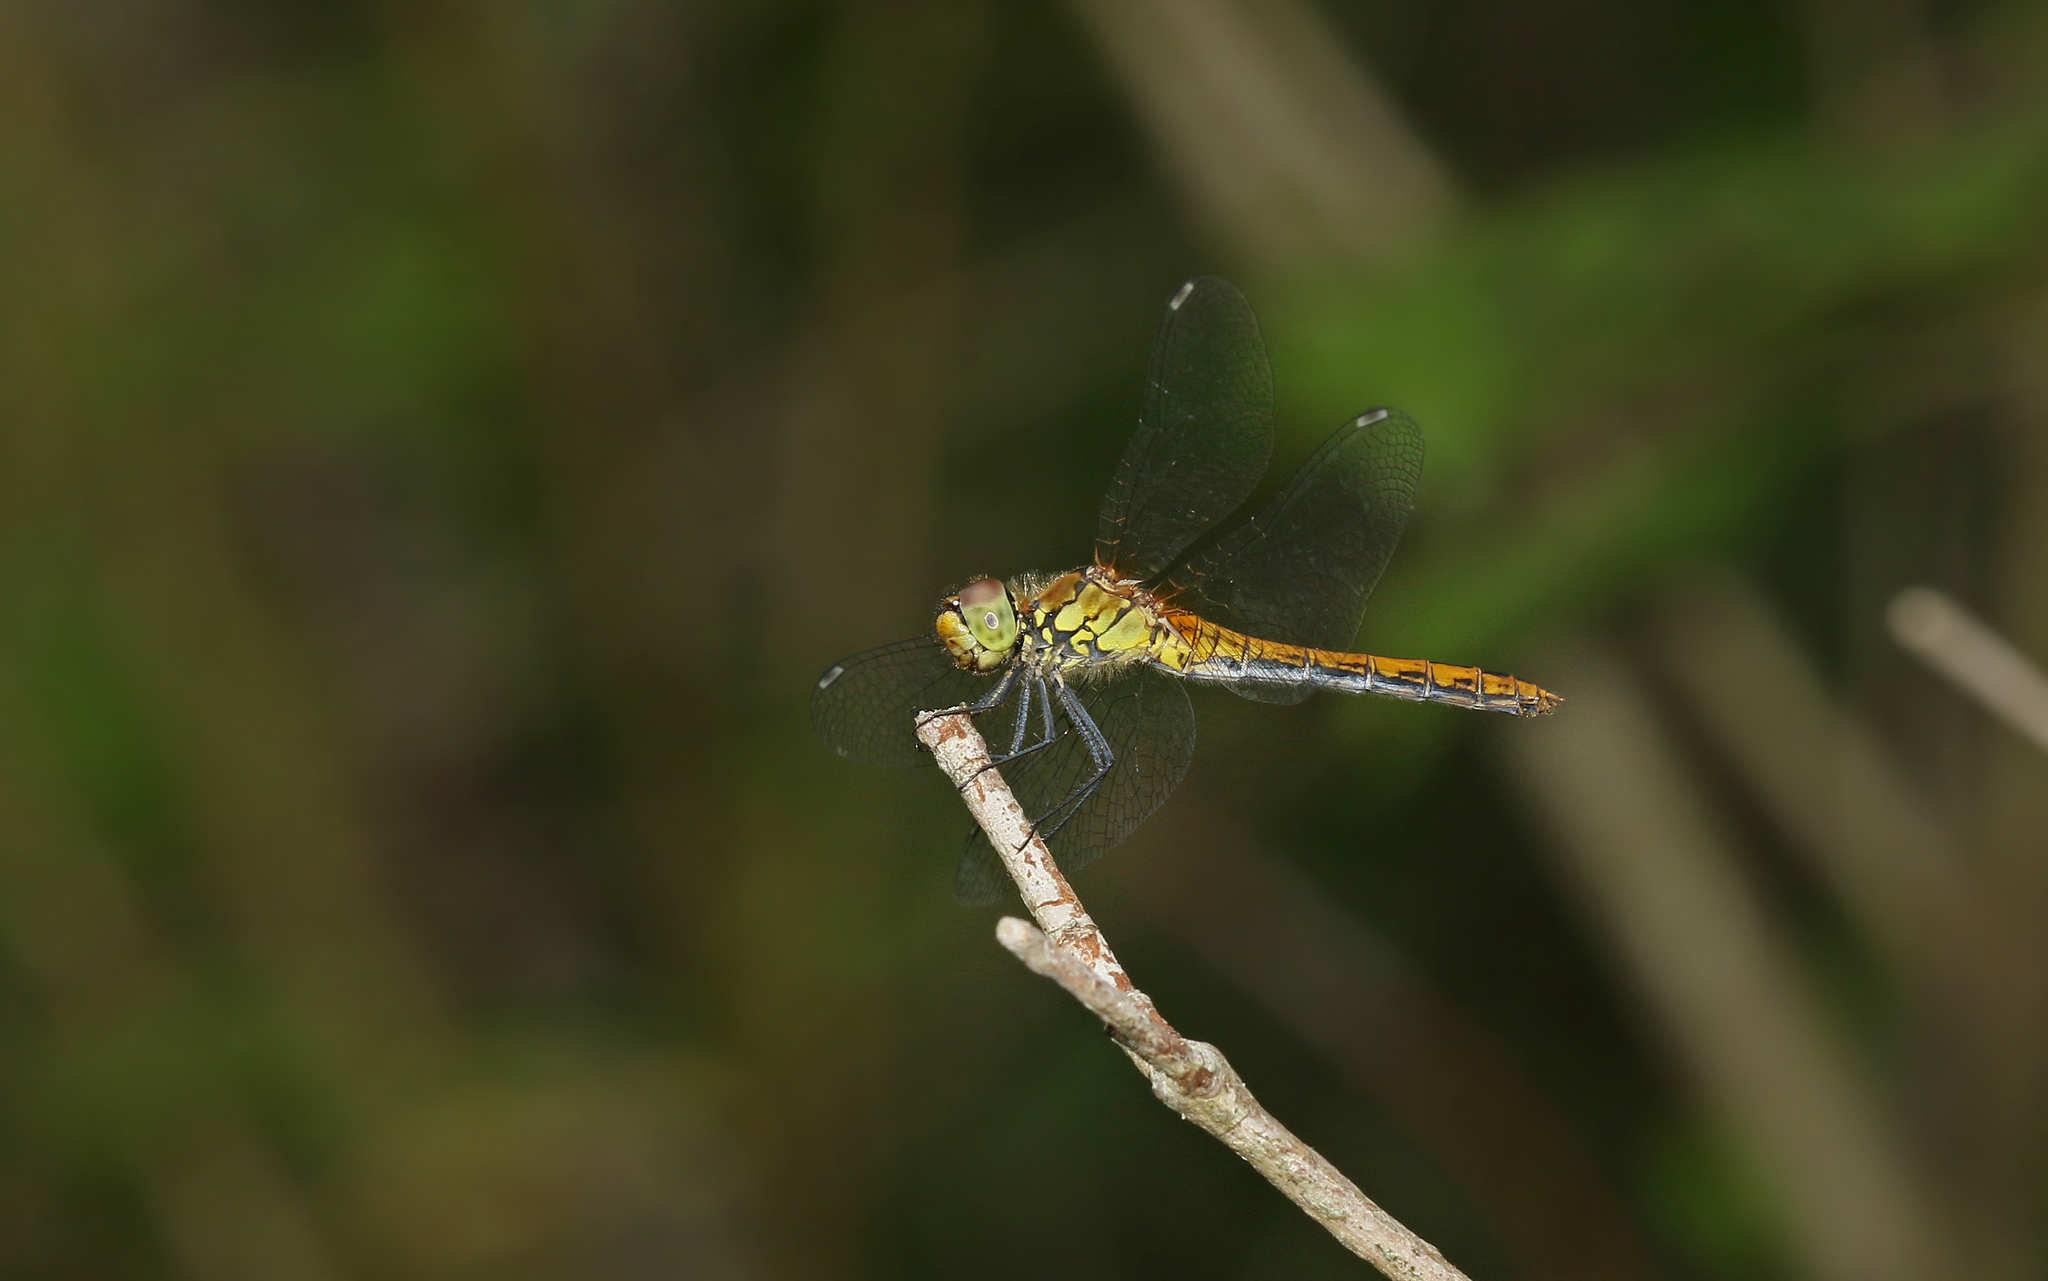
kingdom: Animalia
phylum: Arthropoda
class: Insecta
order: Odonata
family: Libellulidae
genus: Sympetrum
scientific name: Sympetrum sanguineum
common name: Ruddy darter
